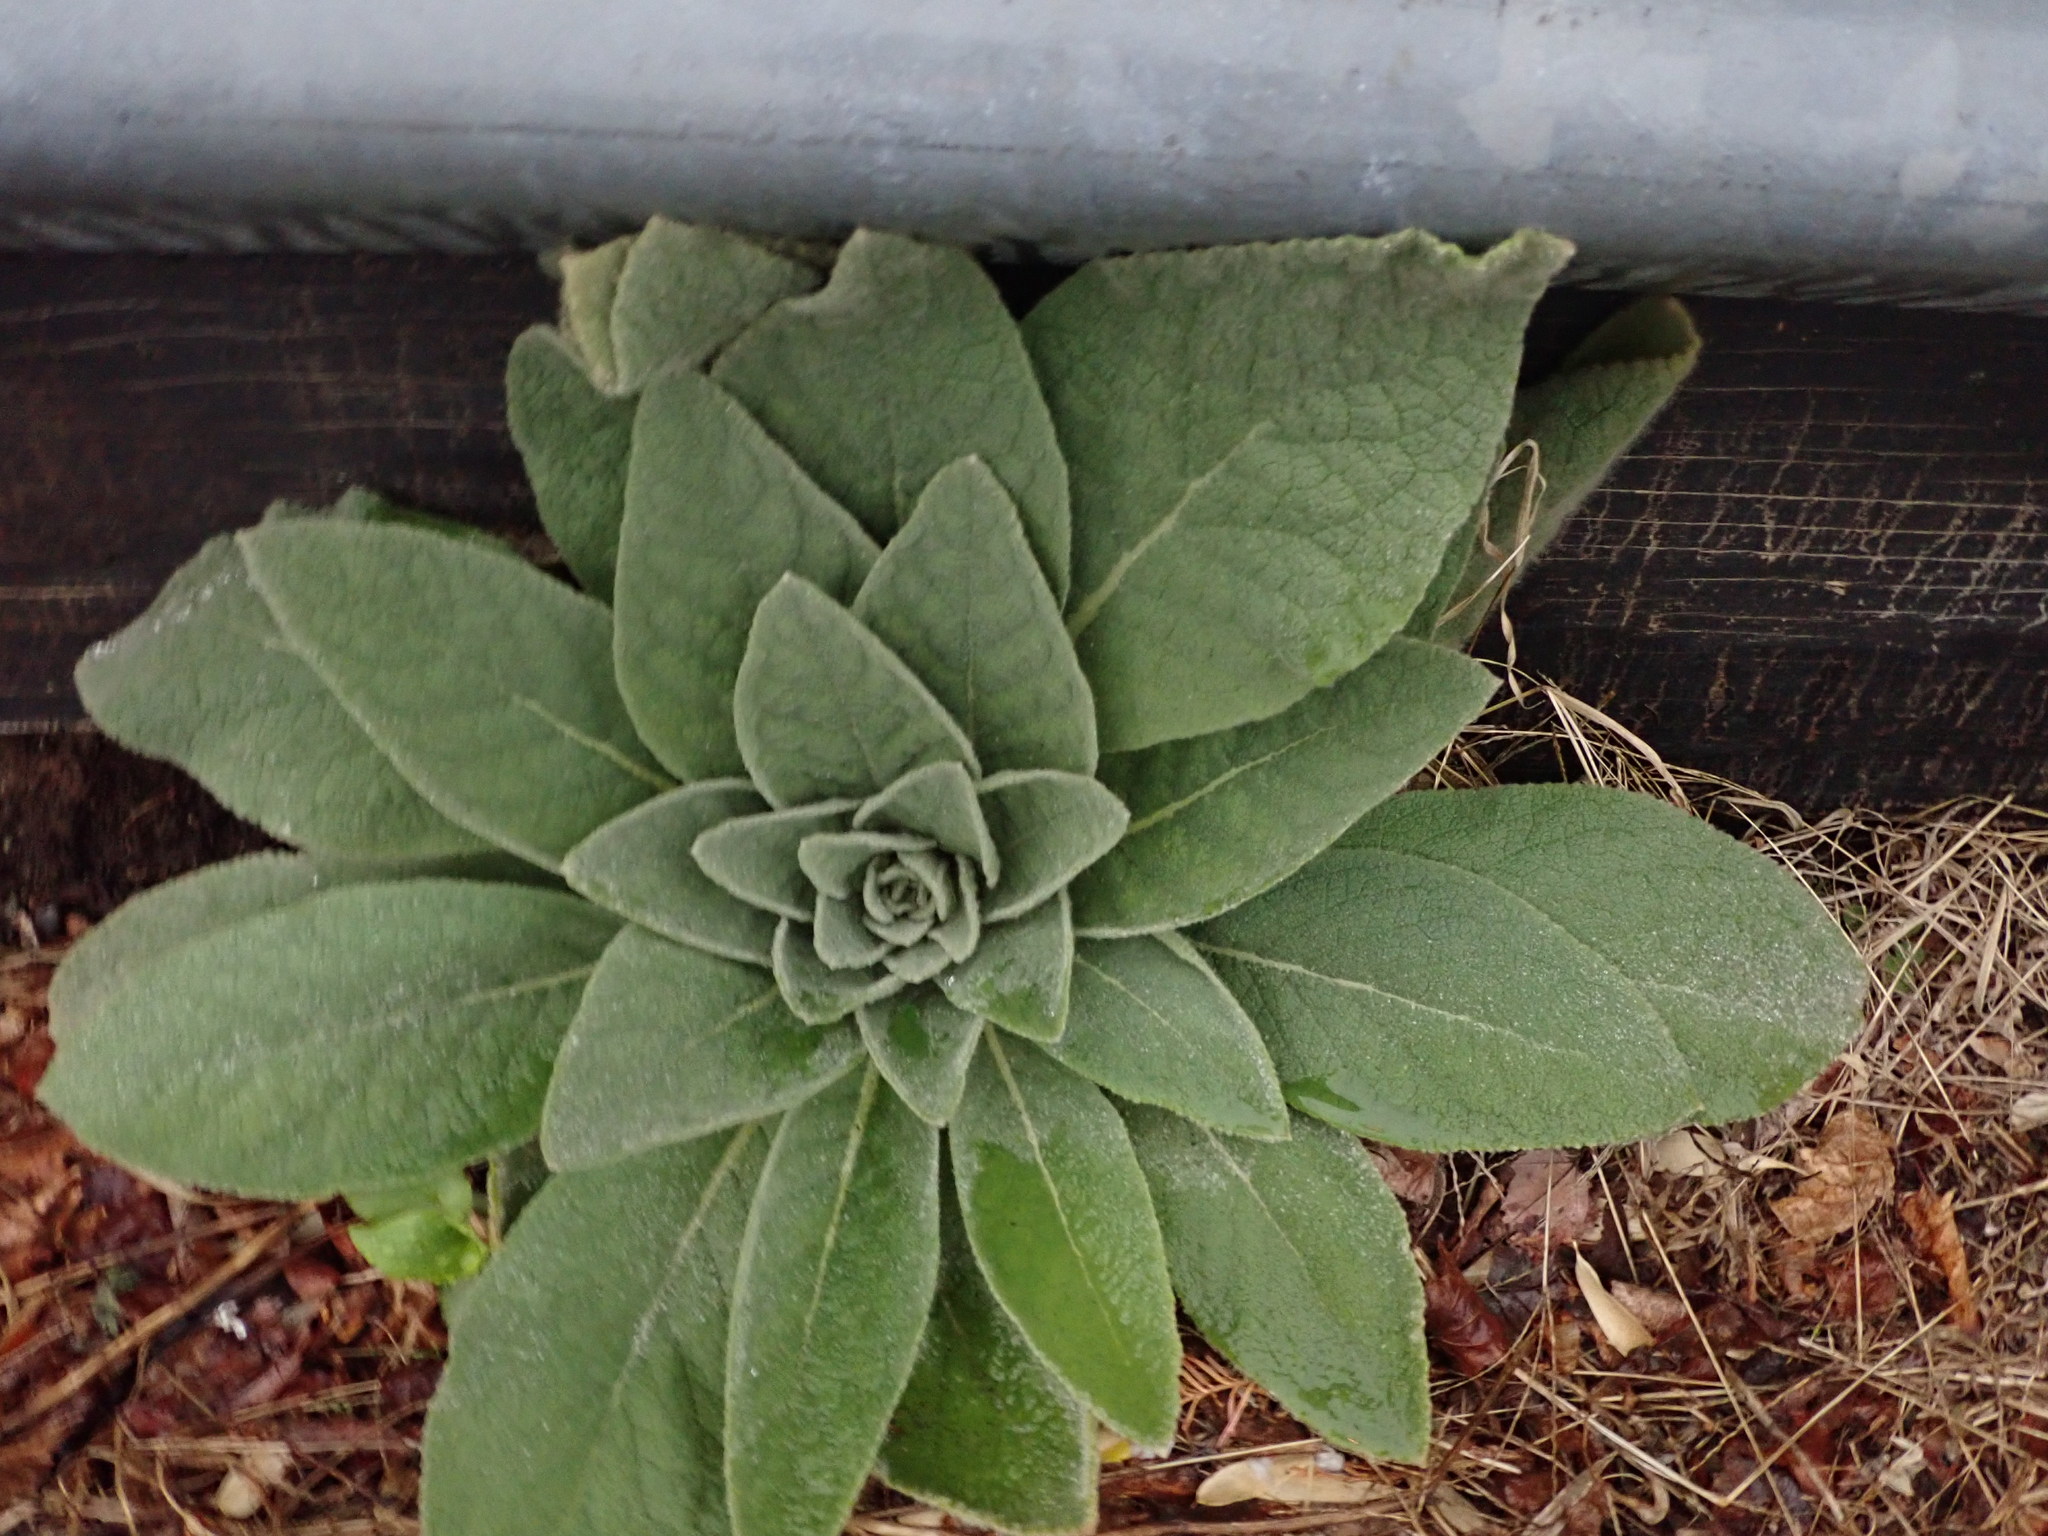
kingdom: Plantae
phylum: Tracheophyta
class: Magnoliopsida
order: Lamiales
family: Scrophulariaceae
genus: Verbascum
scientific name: Verbascum thapsus
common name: Common mullein
